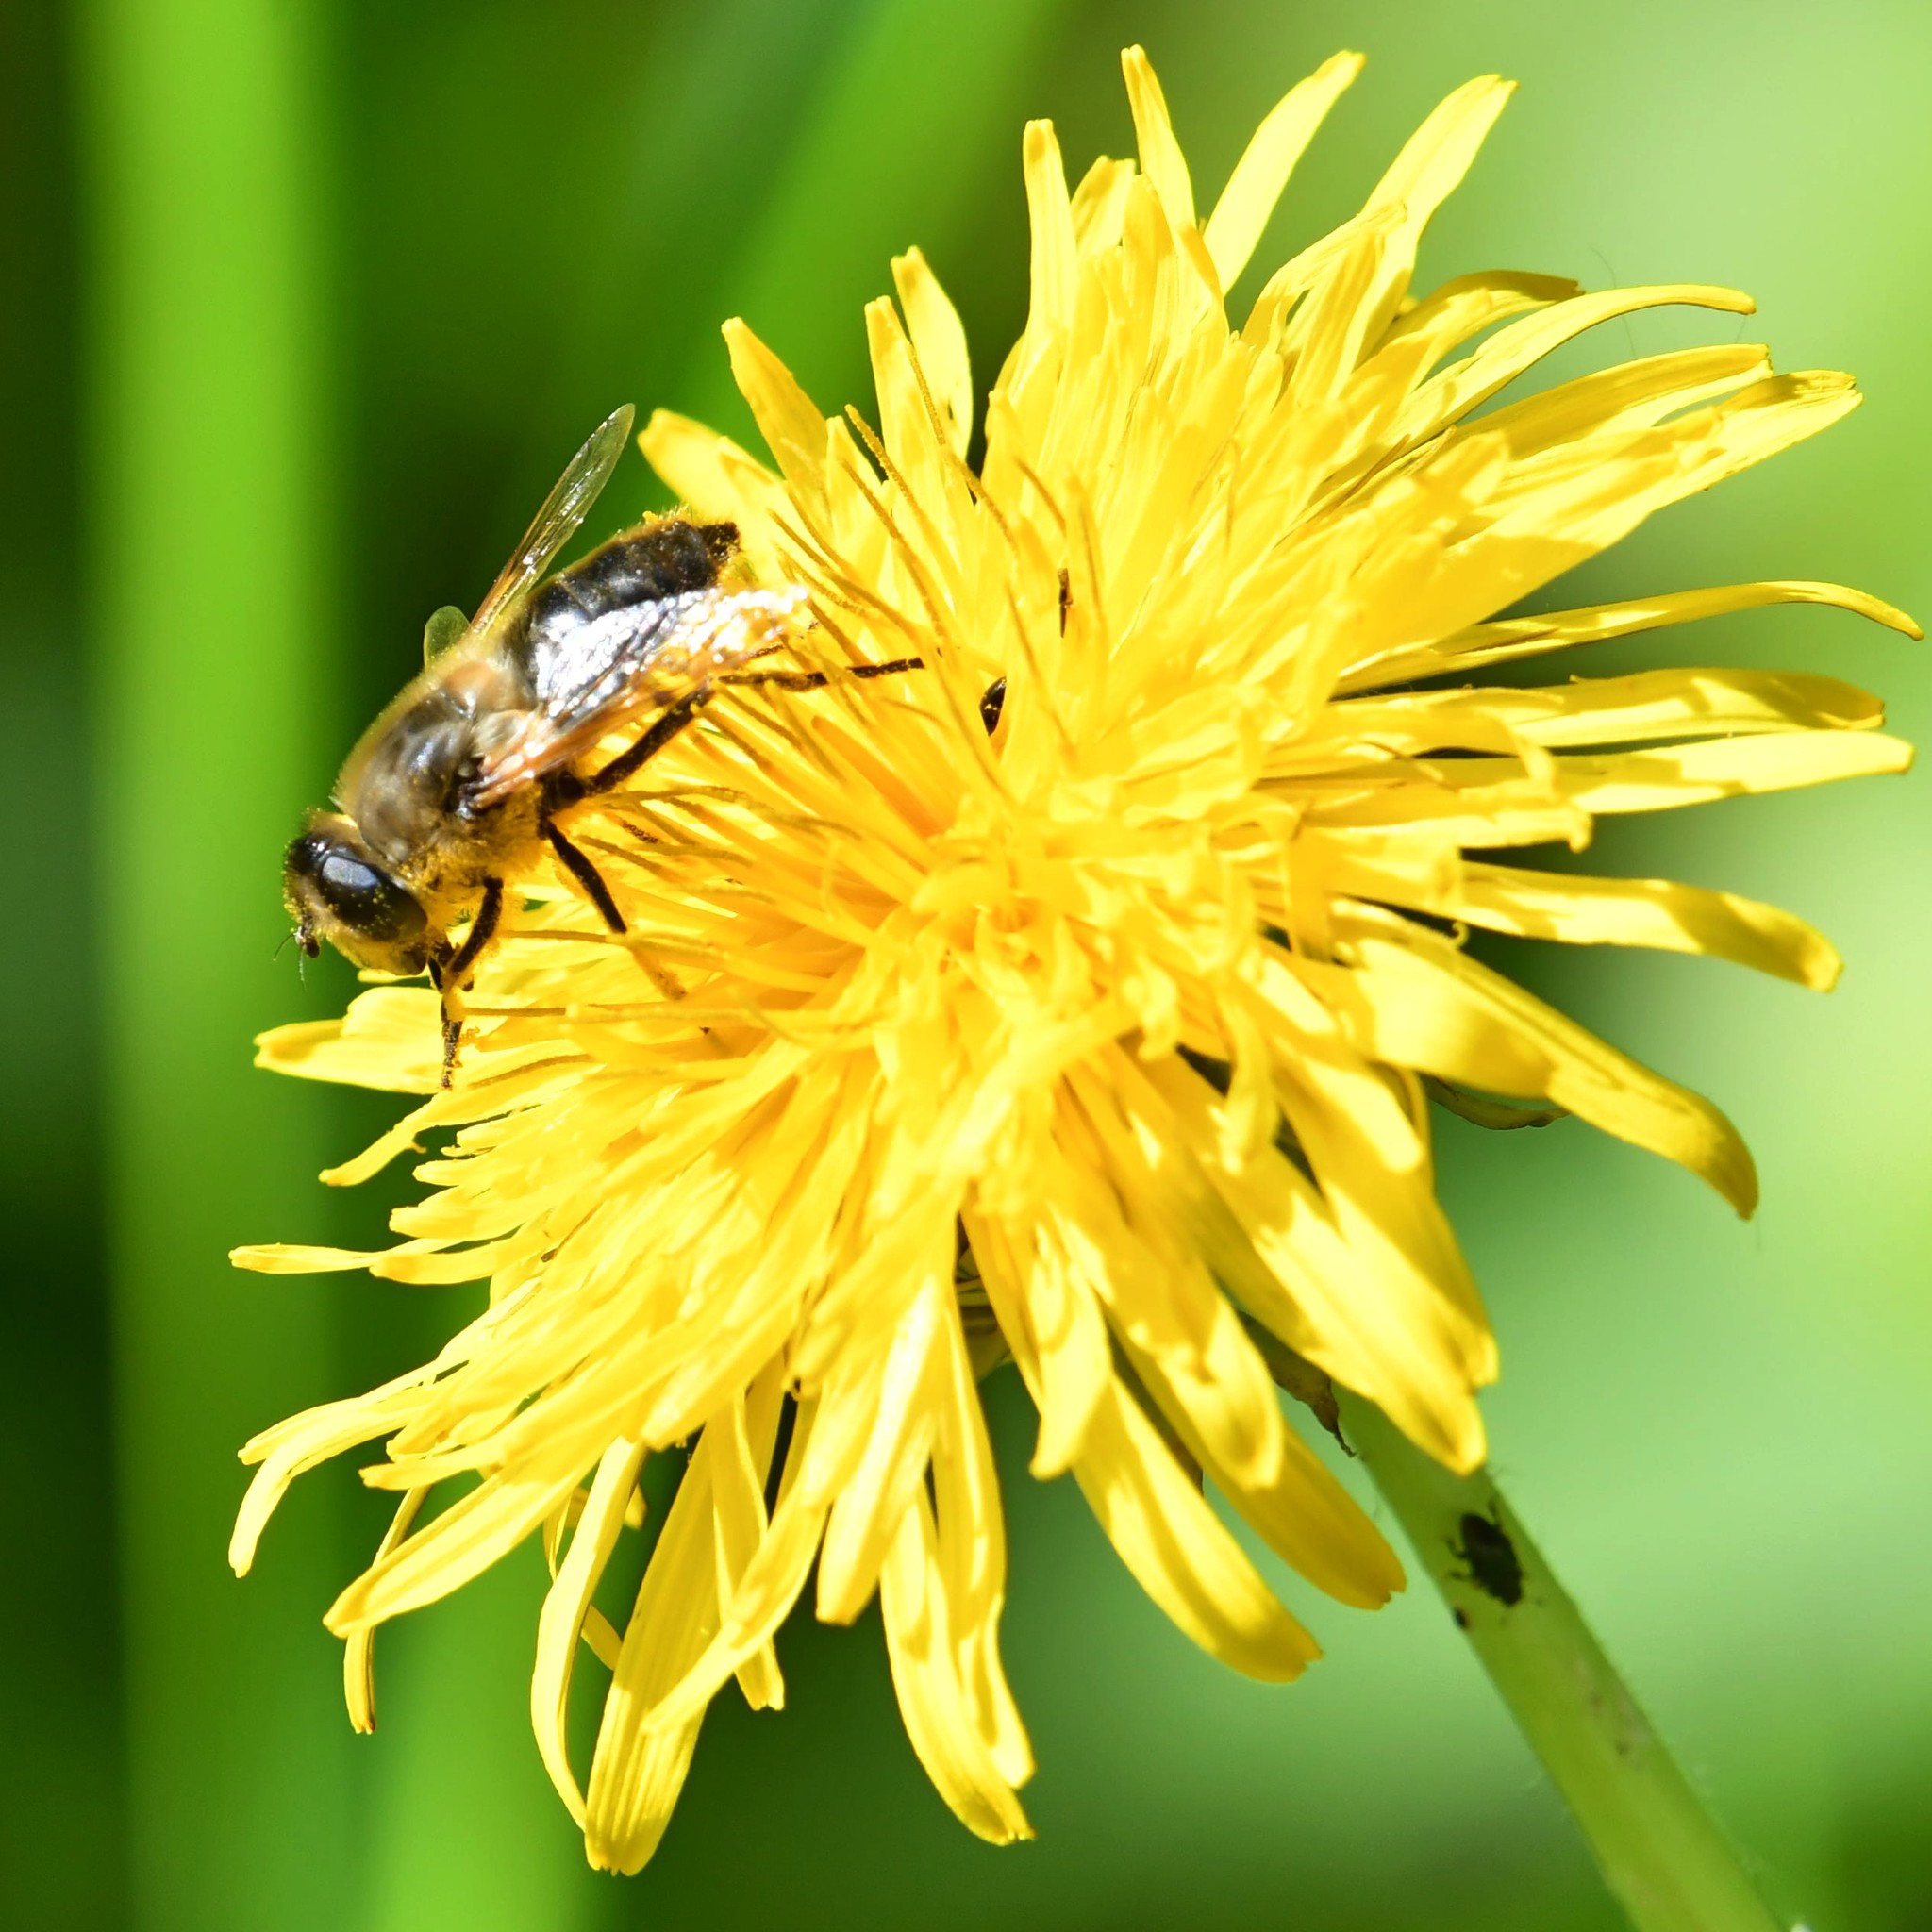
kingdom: Animalia
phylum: Arthropoda
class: Insecta
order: Diptera
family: Syrphidae
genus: Eristalis
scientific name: Eristalis tenax
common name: Drone fly
